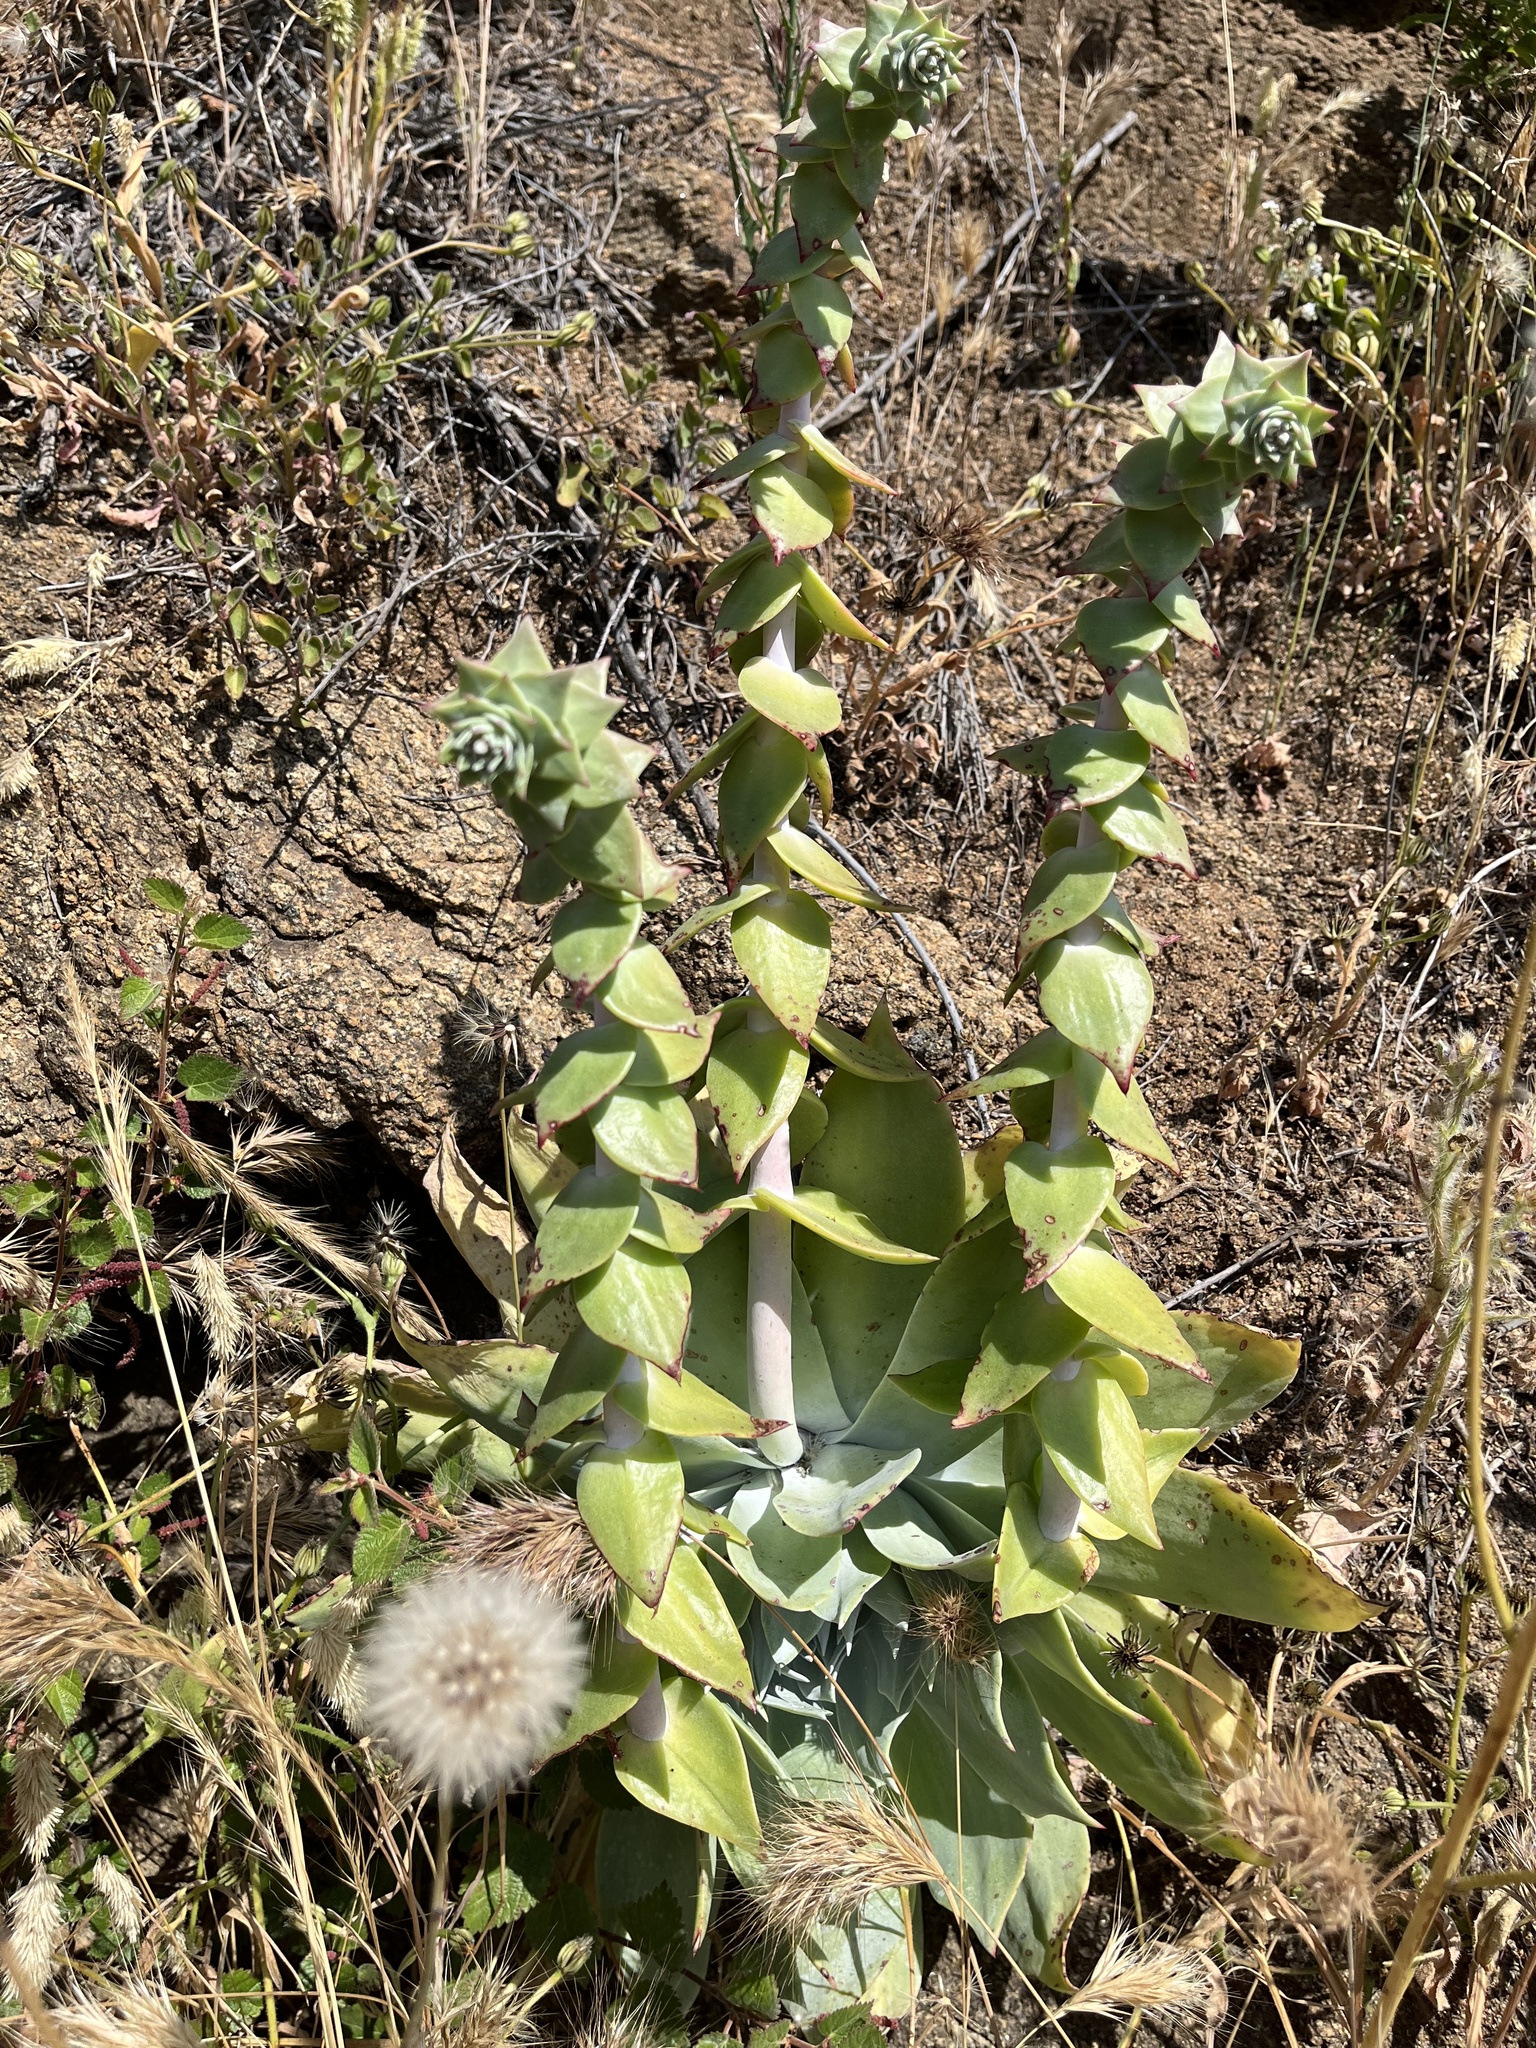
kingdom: Plantae
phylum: Tracheophyta
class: Magnoliopsida
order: Saxifragales
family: Crassulaceae
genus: Dudleya
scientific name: Dudleya pulverulenta
